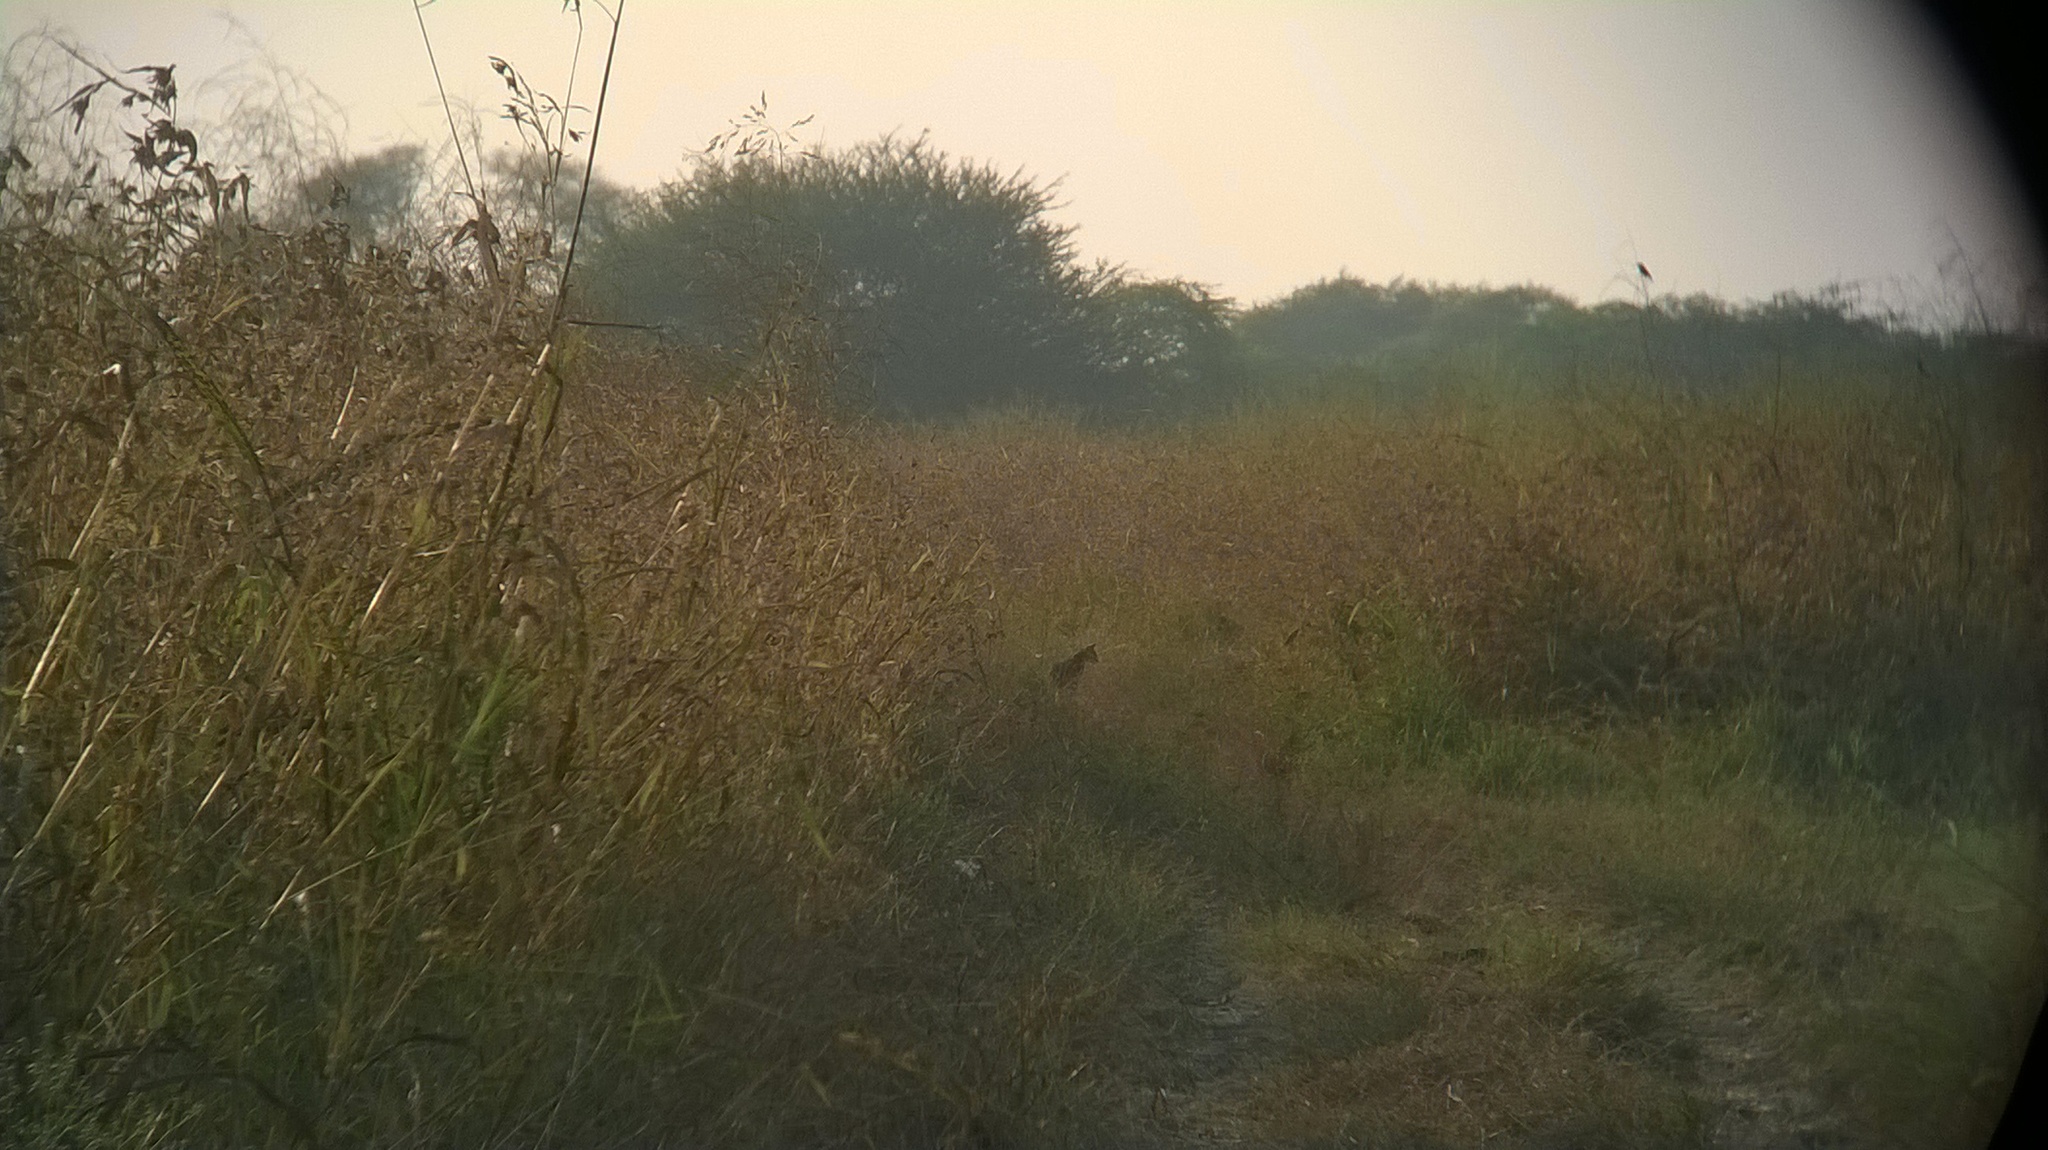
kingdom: Animalia
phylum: Chordata
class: Mammalia
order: Carnivora
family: Felidae
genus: Felis
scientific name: Felis chaus
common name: Jungle cat
